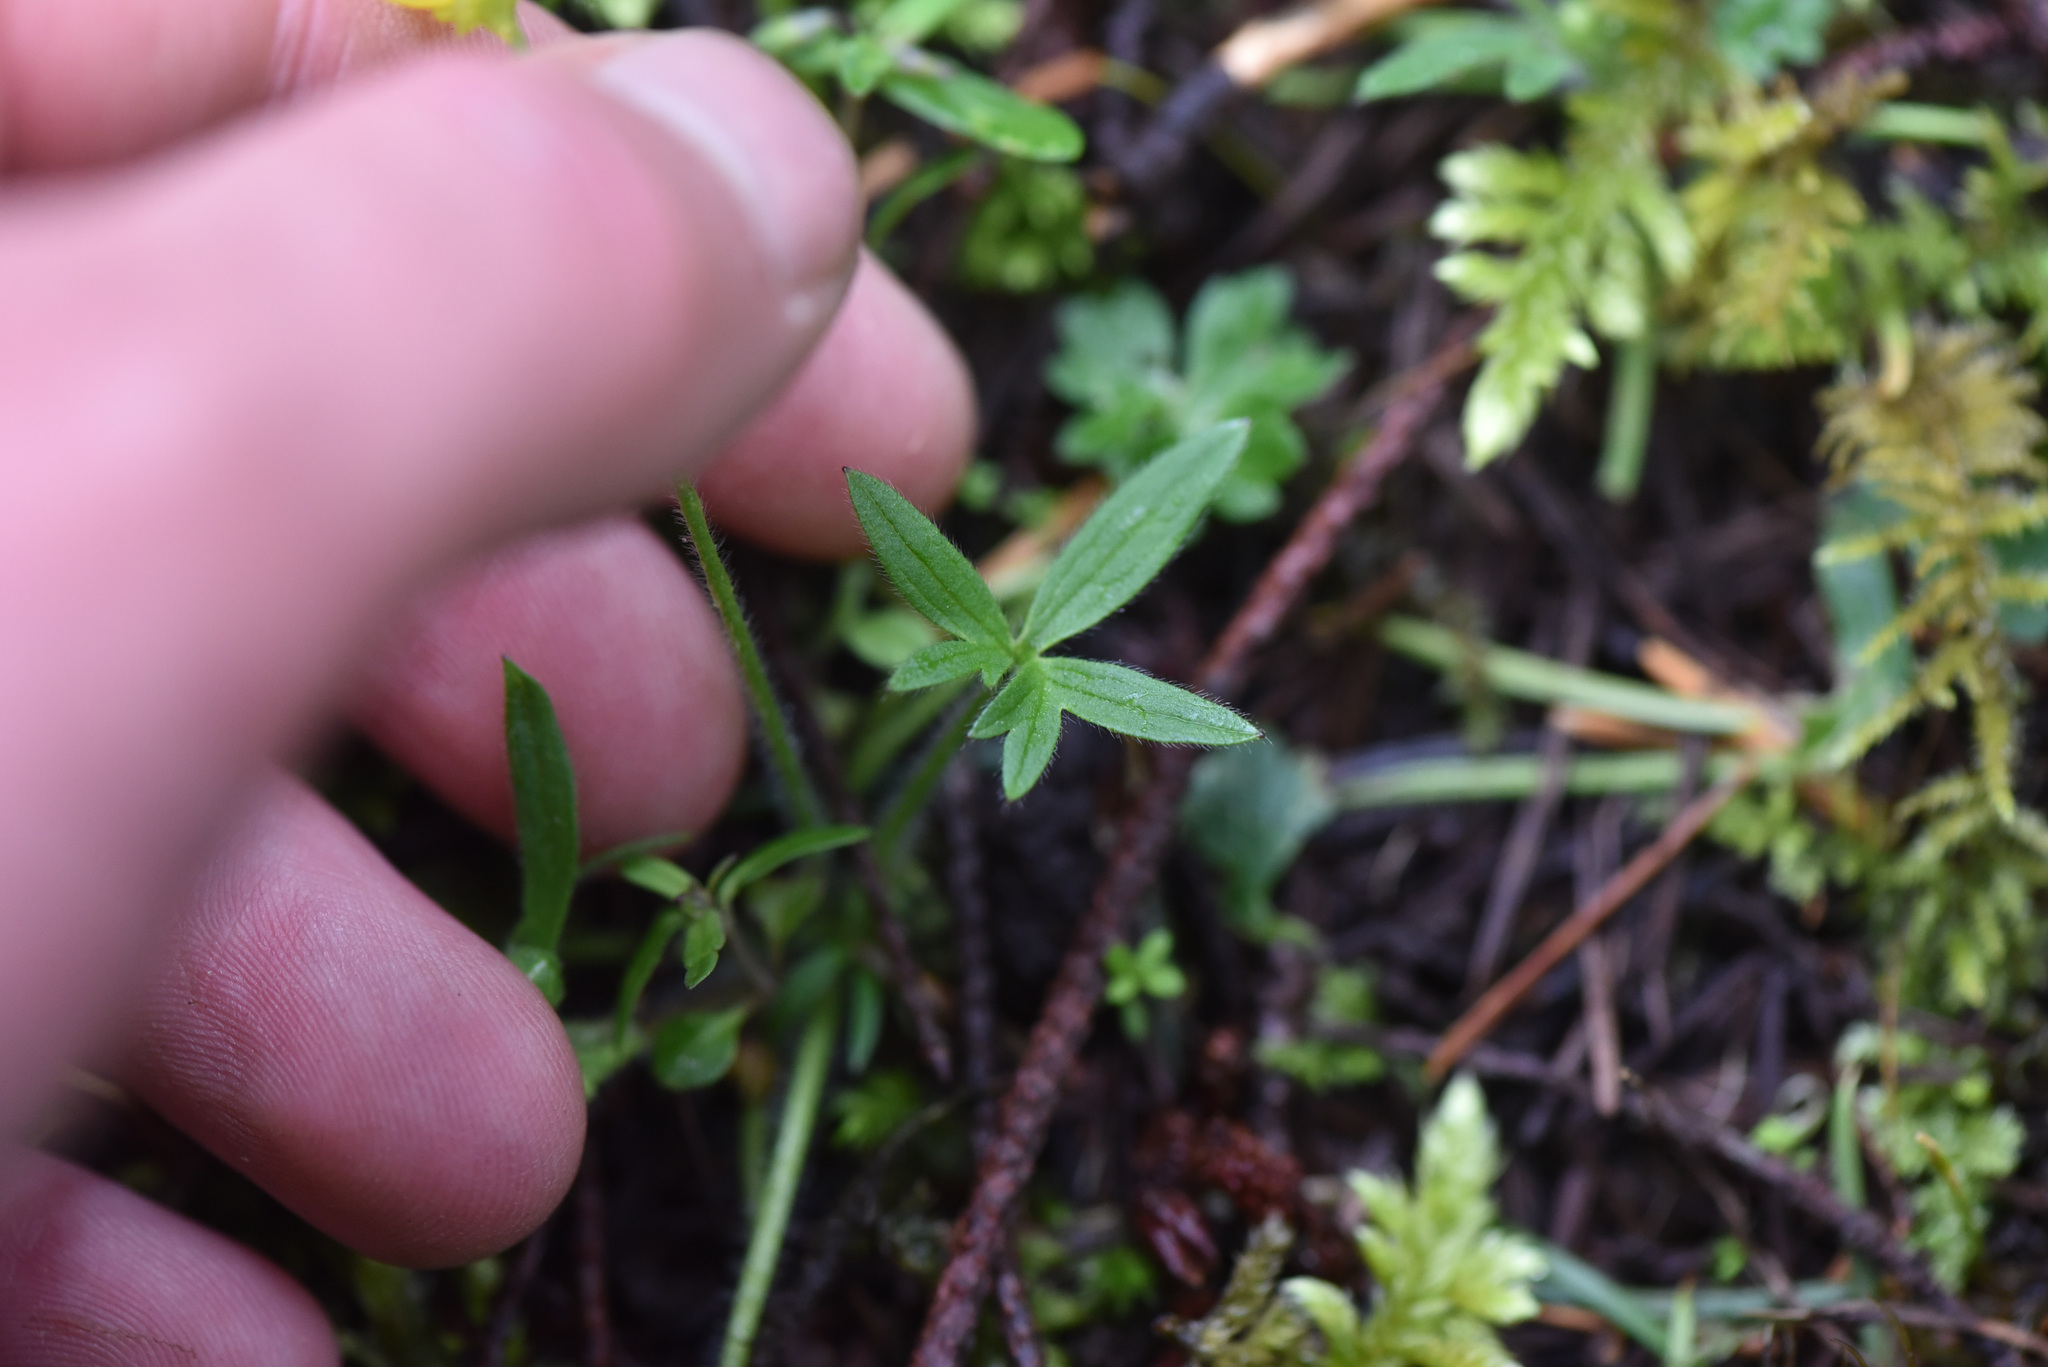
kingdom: Plantae
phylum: Tracheophyta
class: Magnoliopsida
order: Ranunculales
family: Ranunculaceae
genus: Ranunculus
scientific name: Ranunculus occidentalis
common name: Western buttercup
